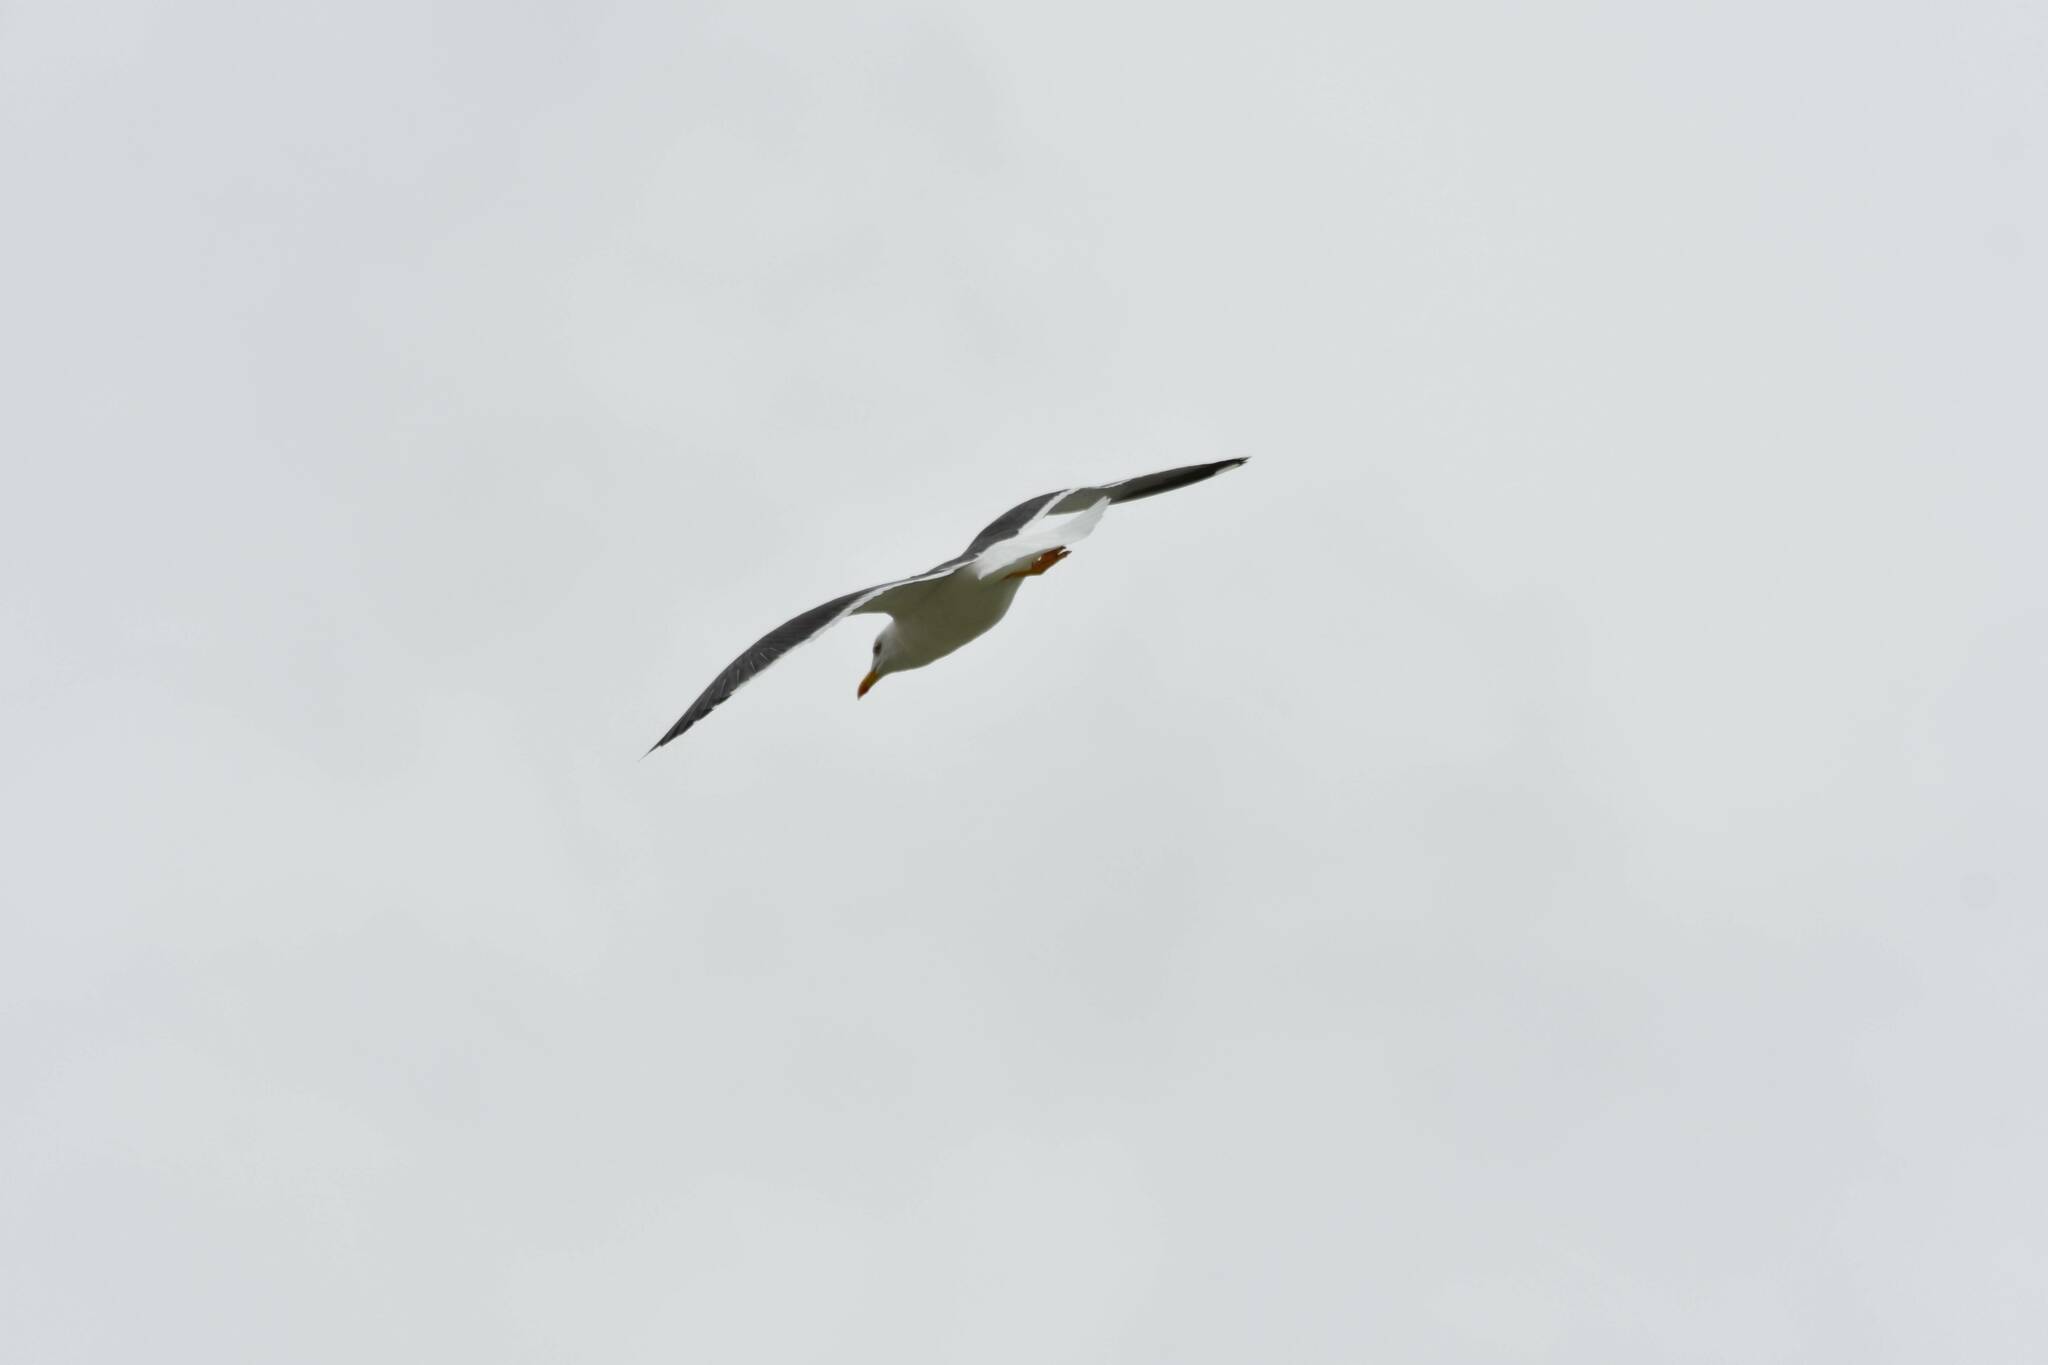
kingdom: Animalia
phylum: Chordata
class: Aves
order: Charadriiformes
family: Laridae
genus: Larus
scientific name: Larus fuscus
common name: Lesser black-backed gull
